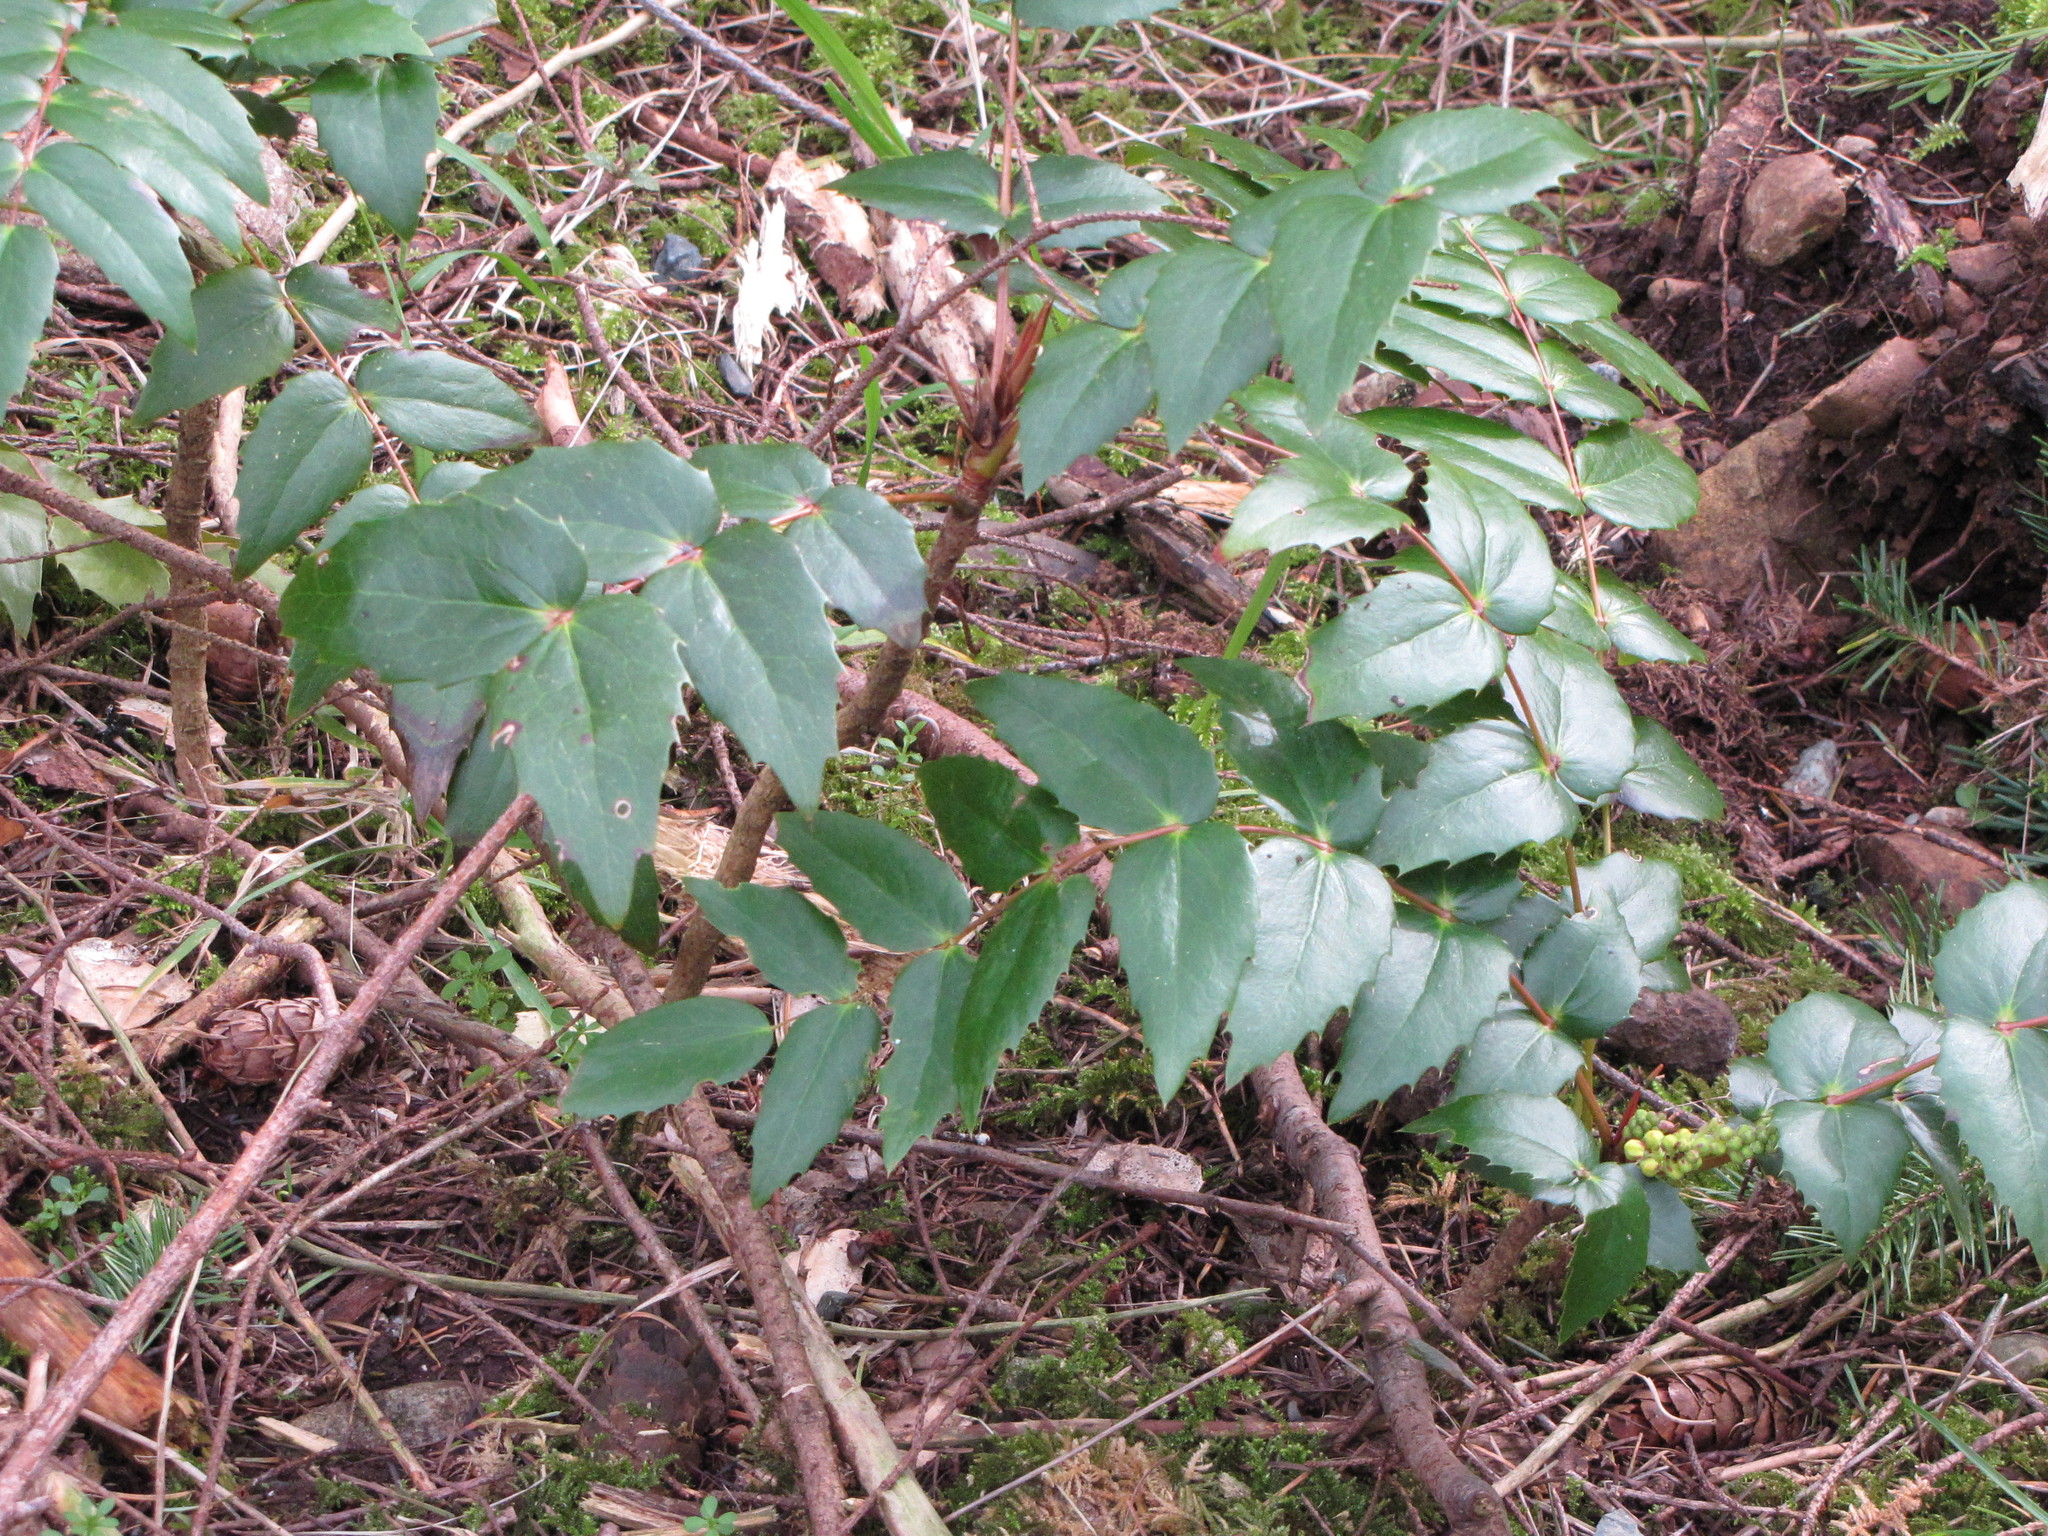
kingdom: Plantae
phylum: Tracheophyta
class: Magnoliopsida
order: Ranunculales
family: Berberidaceae
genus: Mahonia
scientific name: Mahonia nervosa
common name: Cascade oregon-grape
